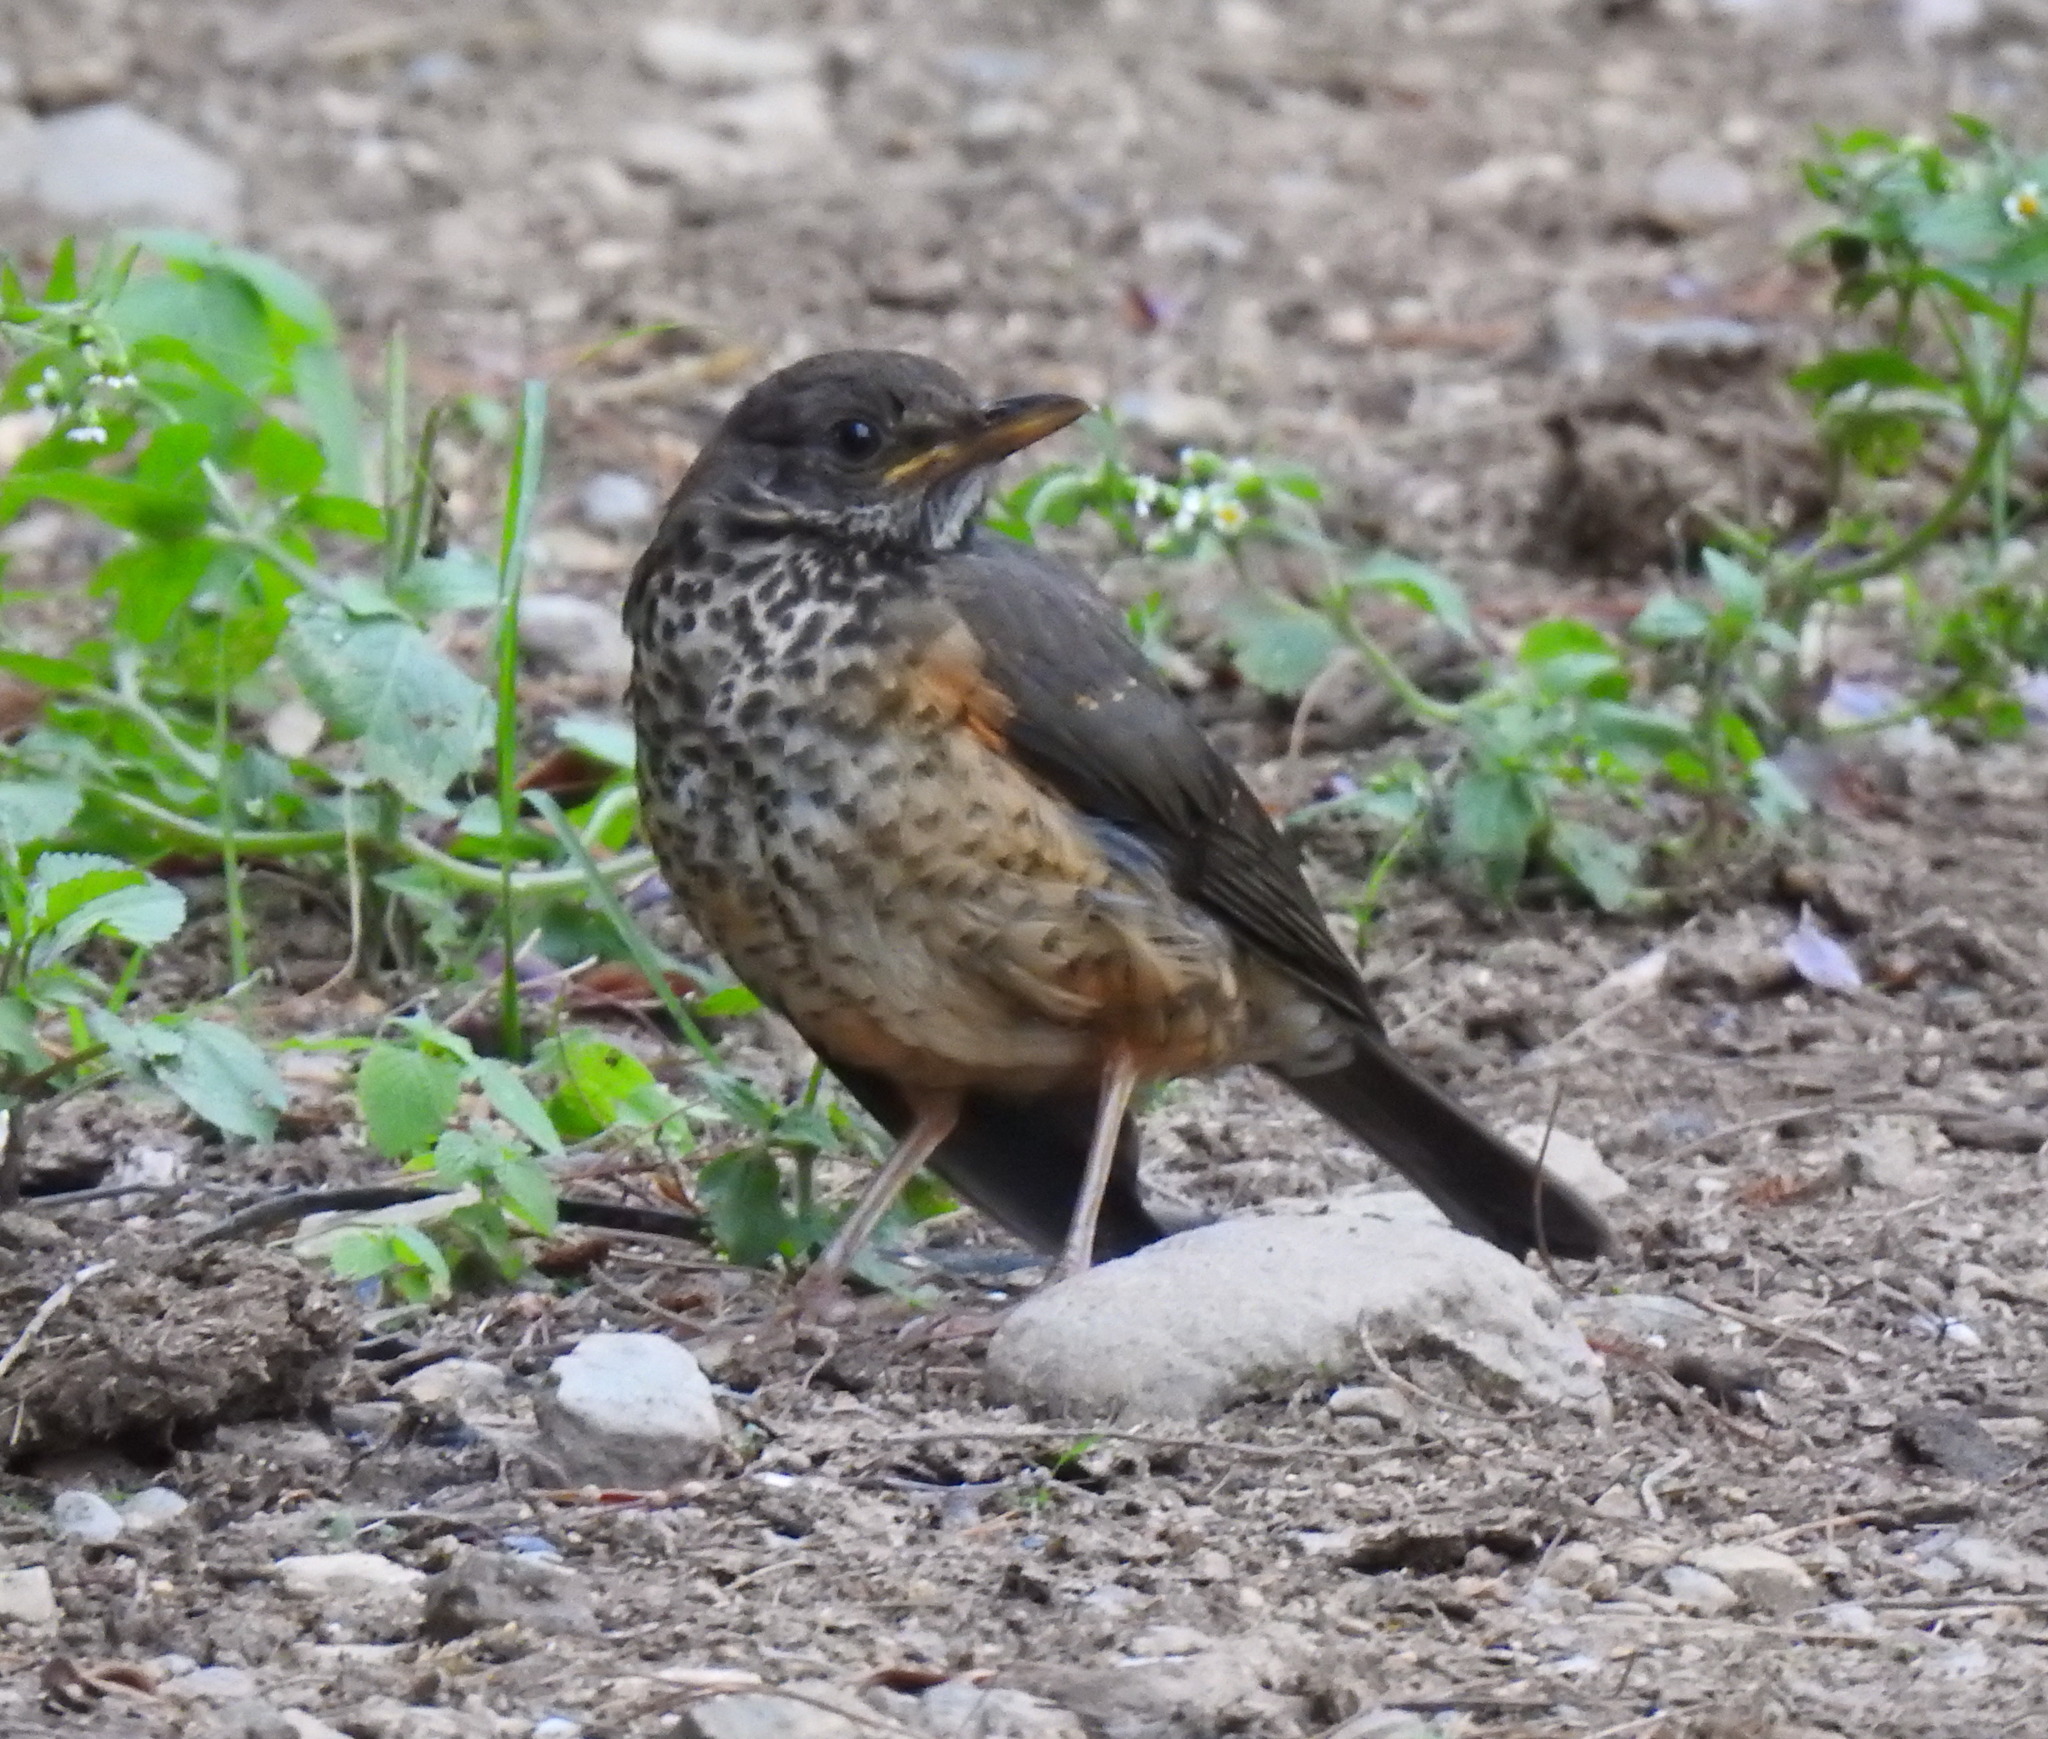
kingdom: Animalia
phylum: Chordata
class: Aves
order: Passeriformes
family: Turdidae
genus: Turdus
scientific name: Turdus olivaceus
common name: Olive thrush
